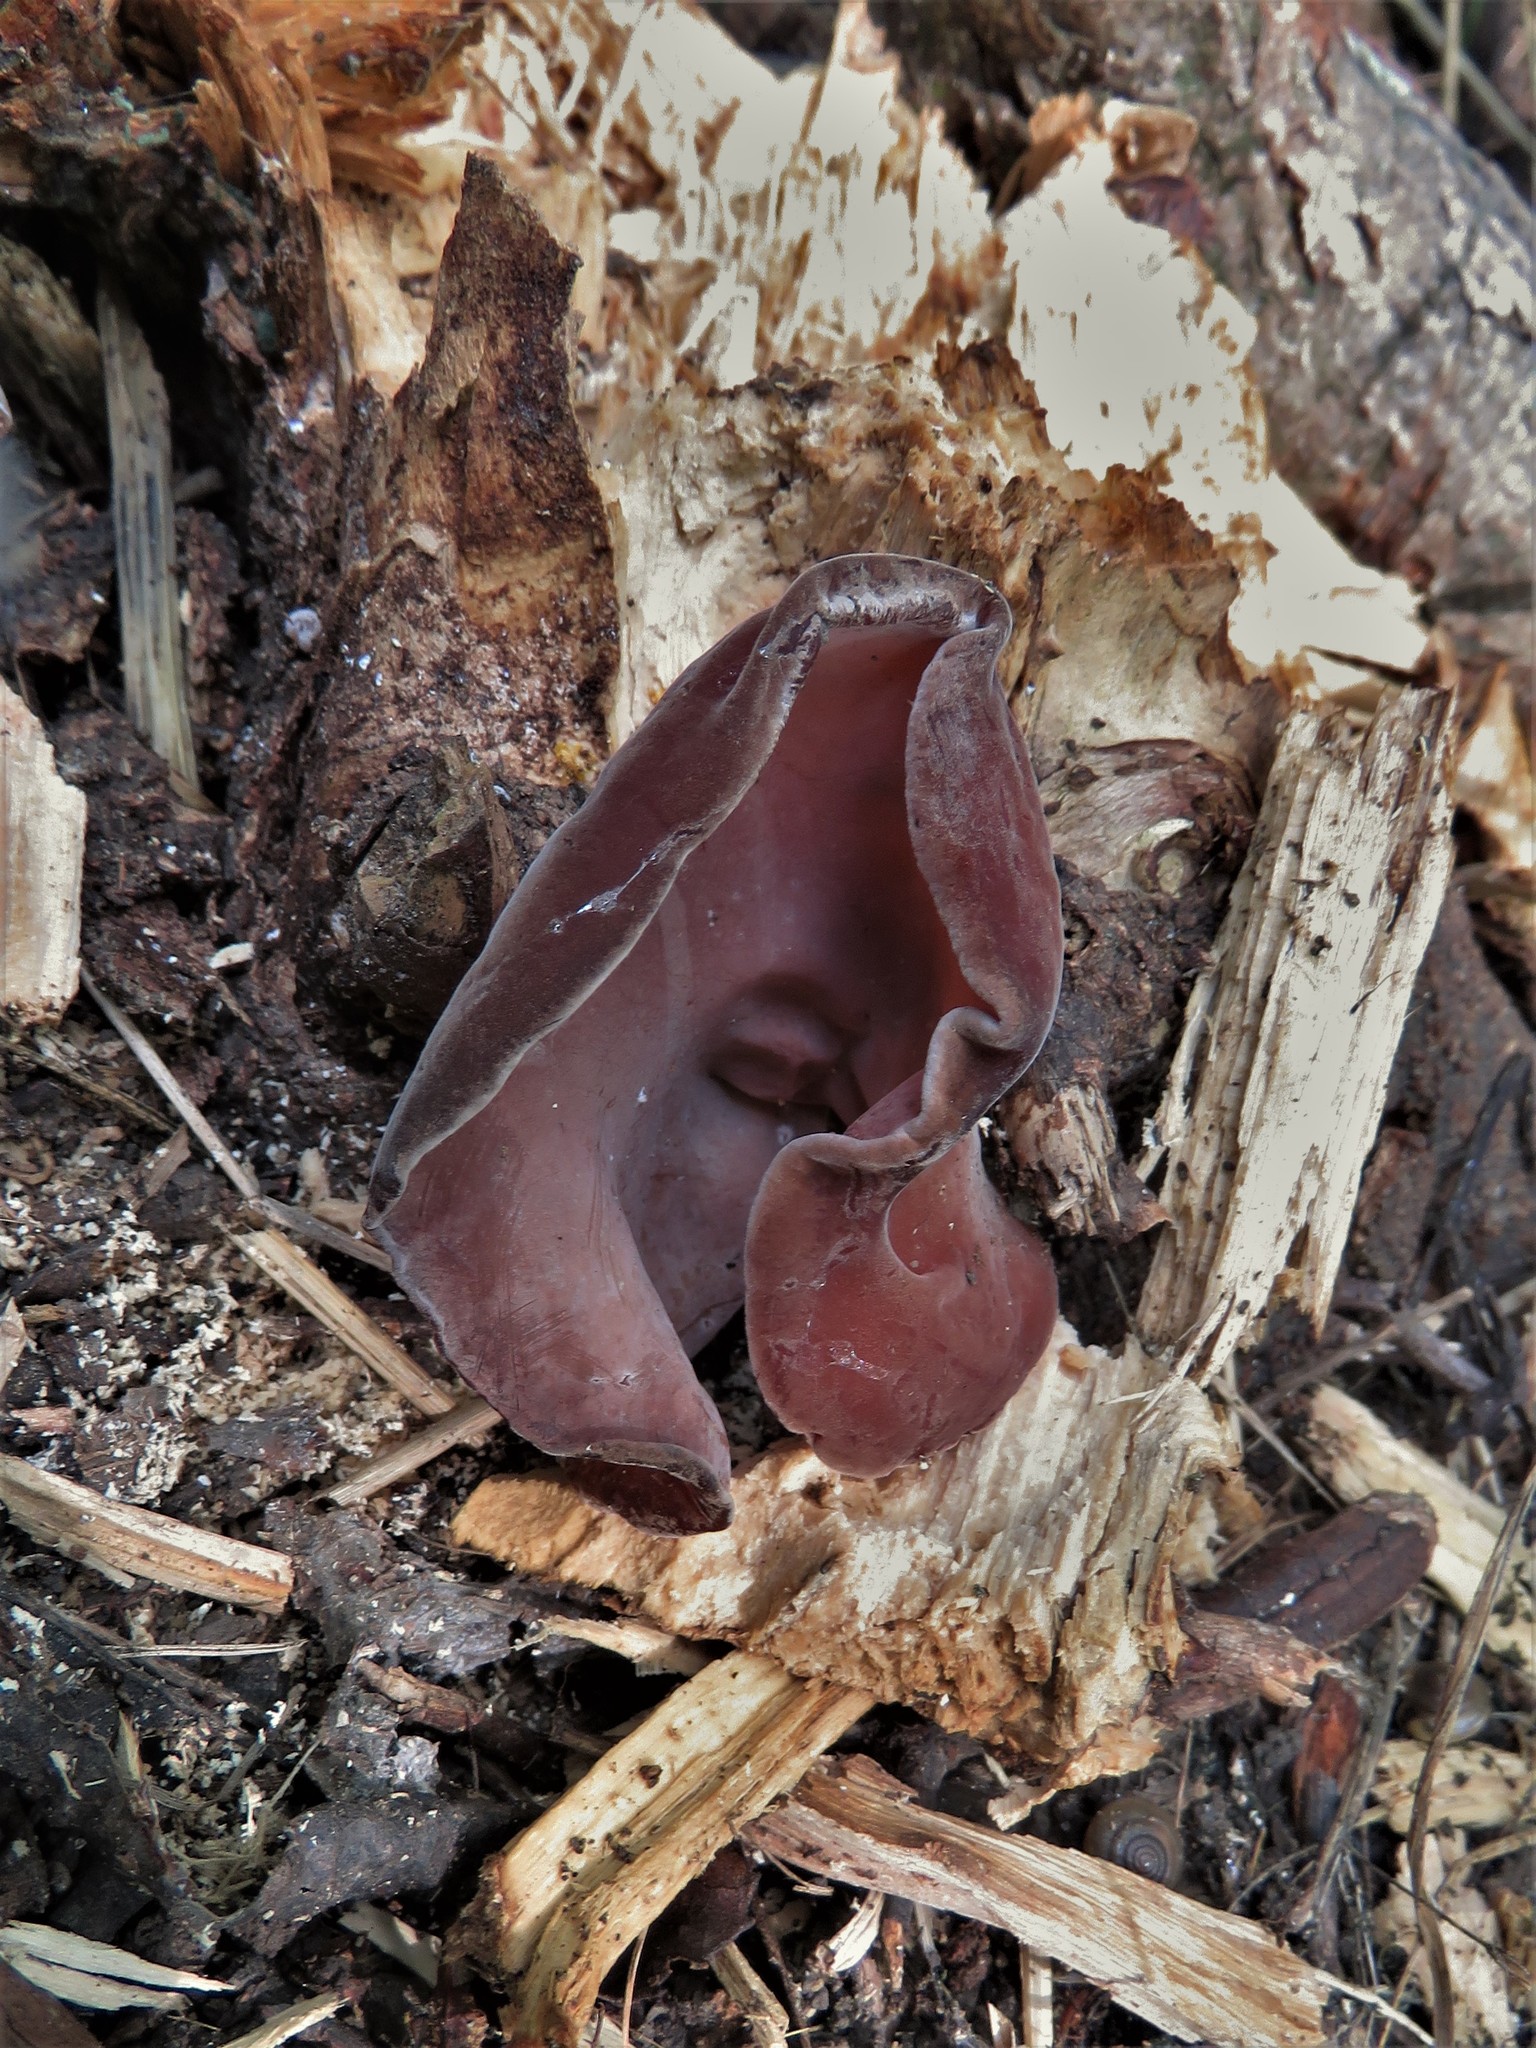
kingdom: Fungi
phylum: Basidiomycota
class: Agaricomycetes
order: Auriculariales
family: Auriculariaceae
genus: Auricularia
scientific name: Auricularia fuscosuccinea
